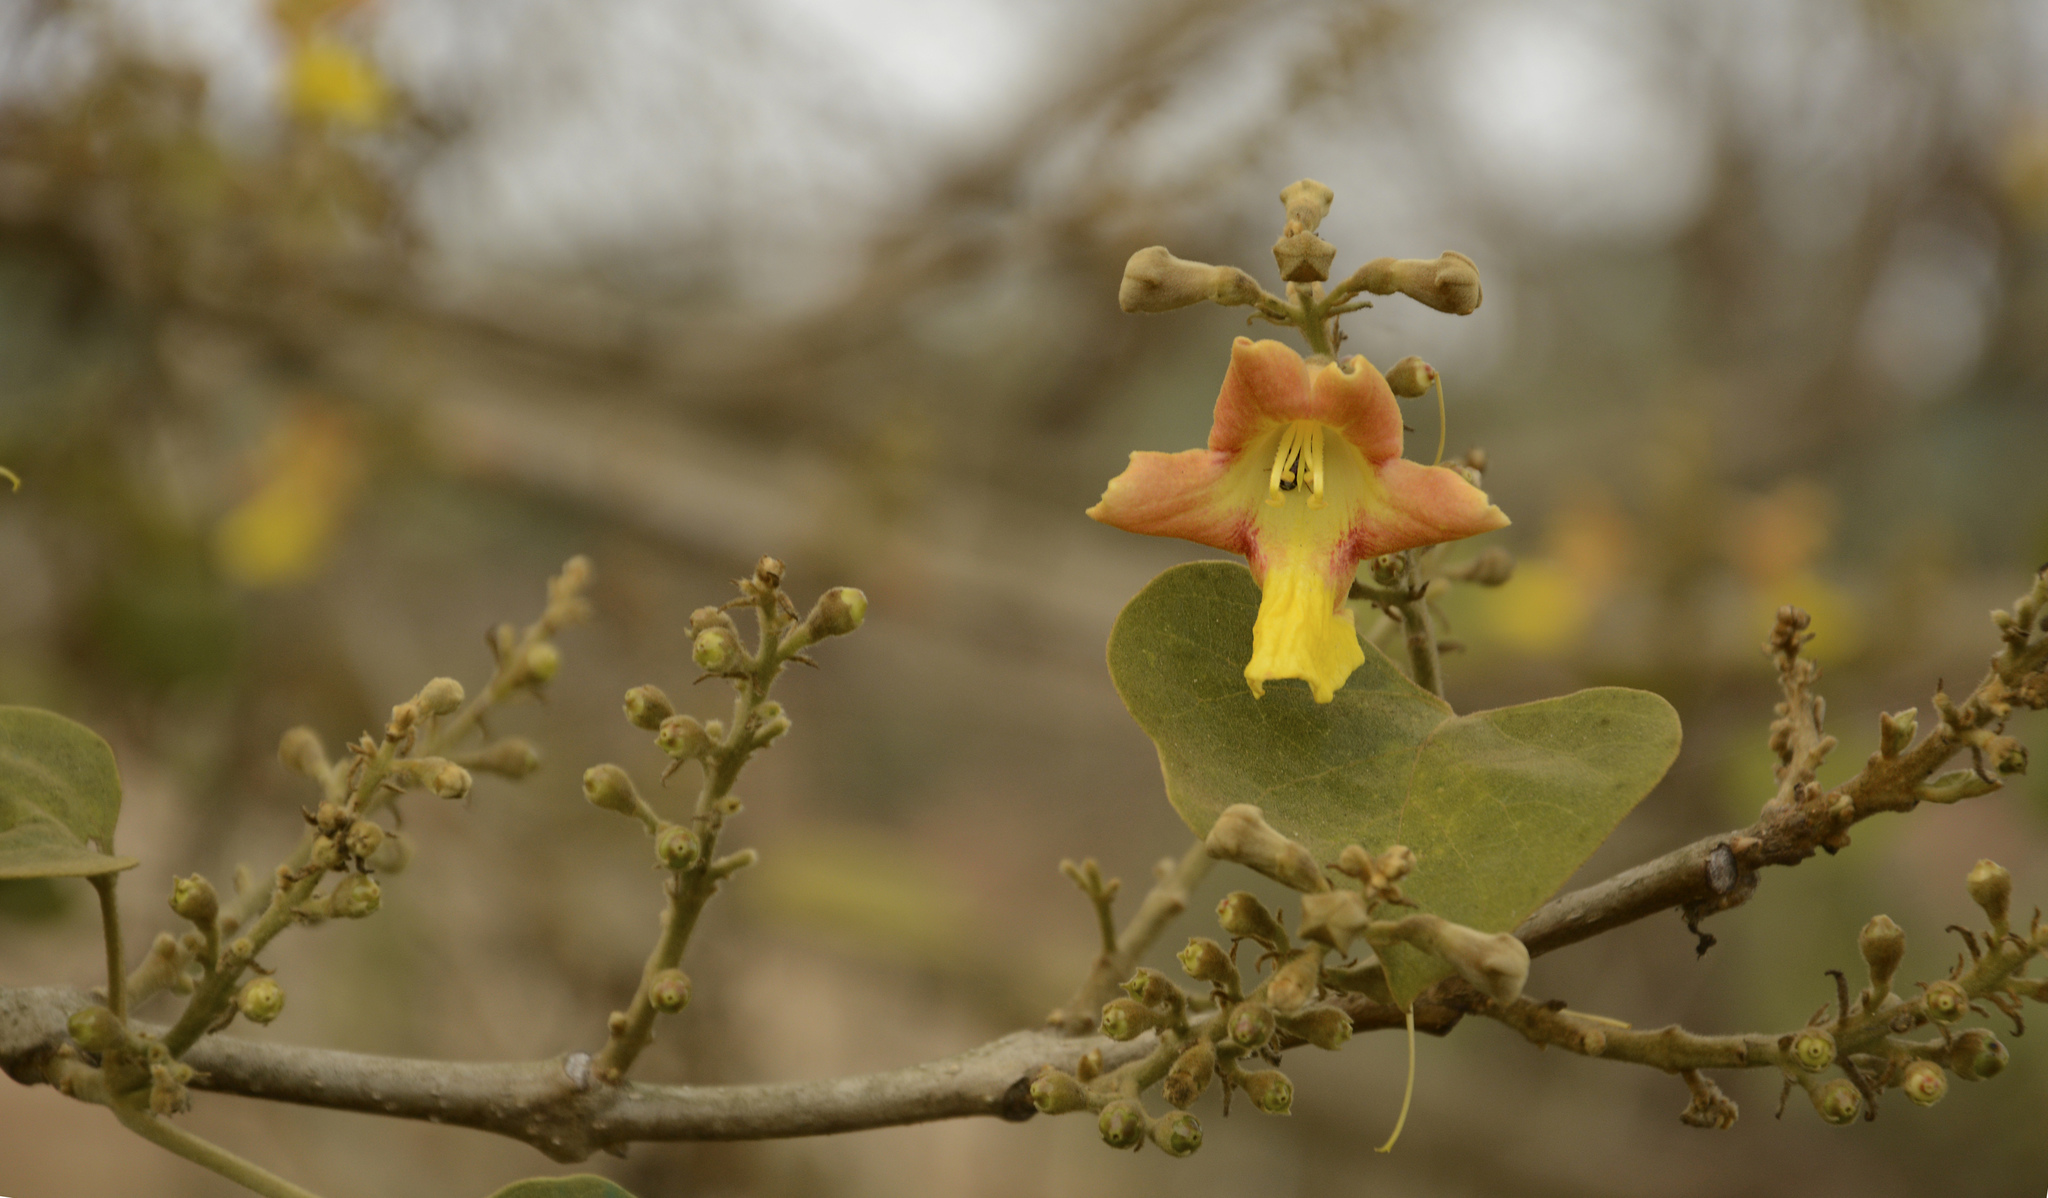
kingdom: Plantae
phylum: Tracheophyta
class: Magnoliopsida
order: Lamiales
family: Lamiaceae
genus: Gmelina
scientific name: Gmelina arborea
